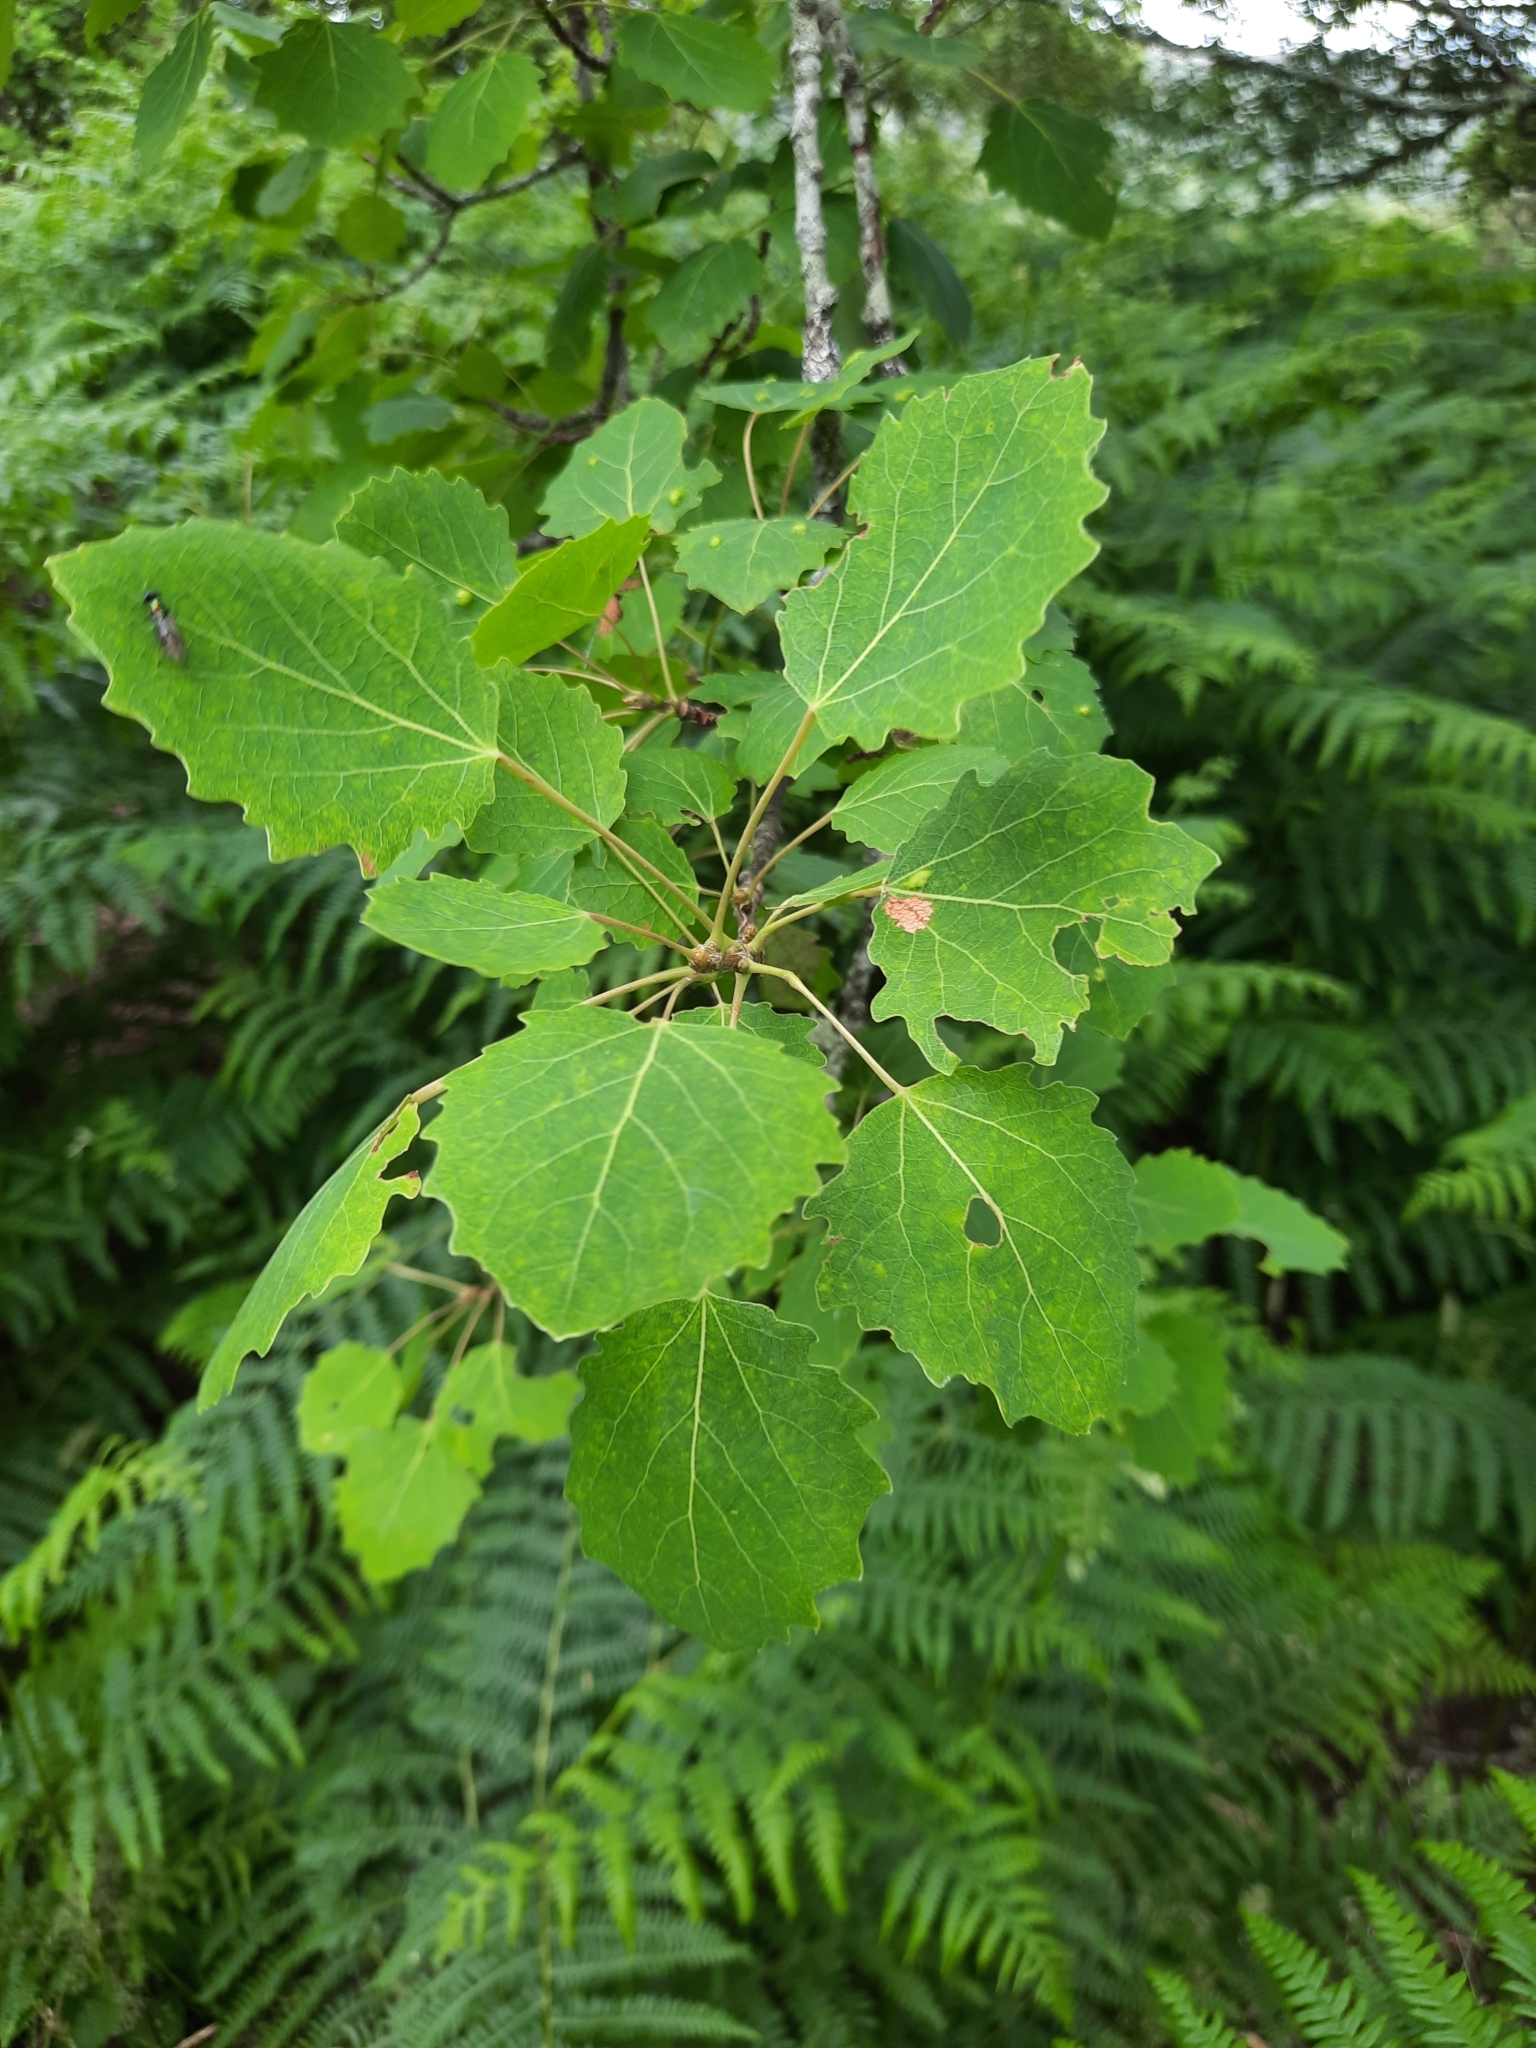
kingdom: Plantae
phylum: Tracheophyta
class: Magnoliopsida
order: Malpighiales
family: Salicaceae
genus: Populus
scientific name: Populus tremula
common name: European aspen
